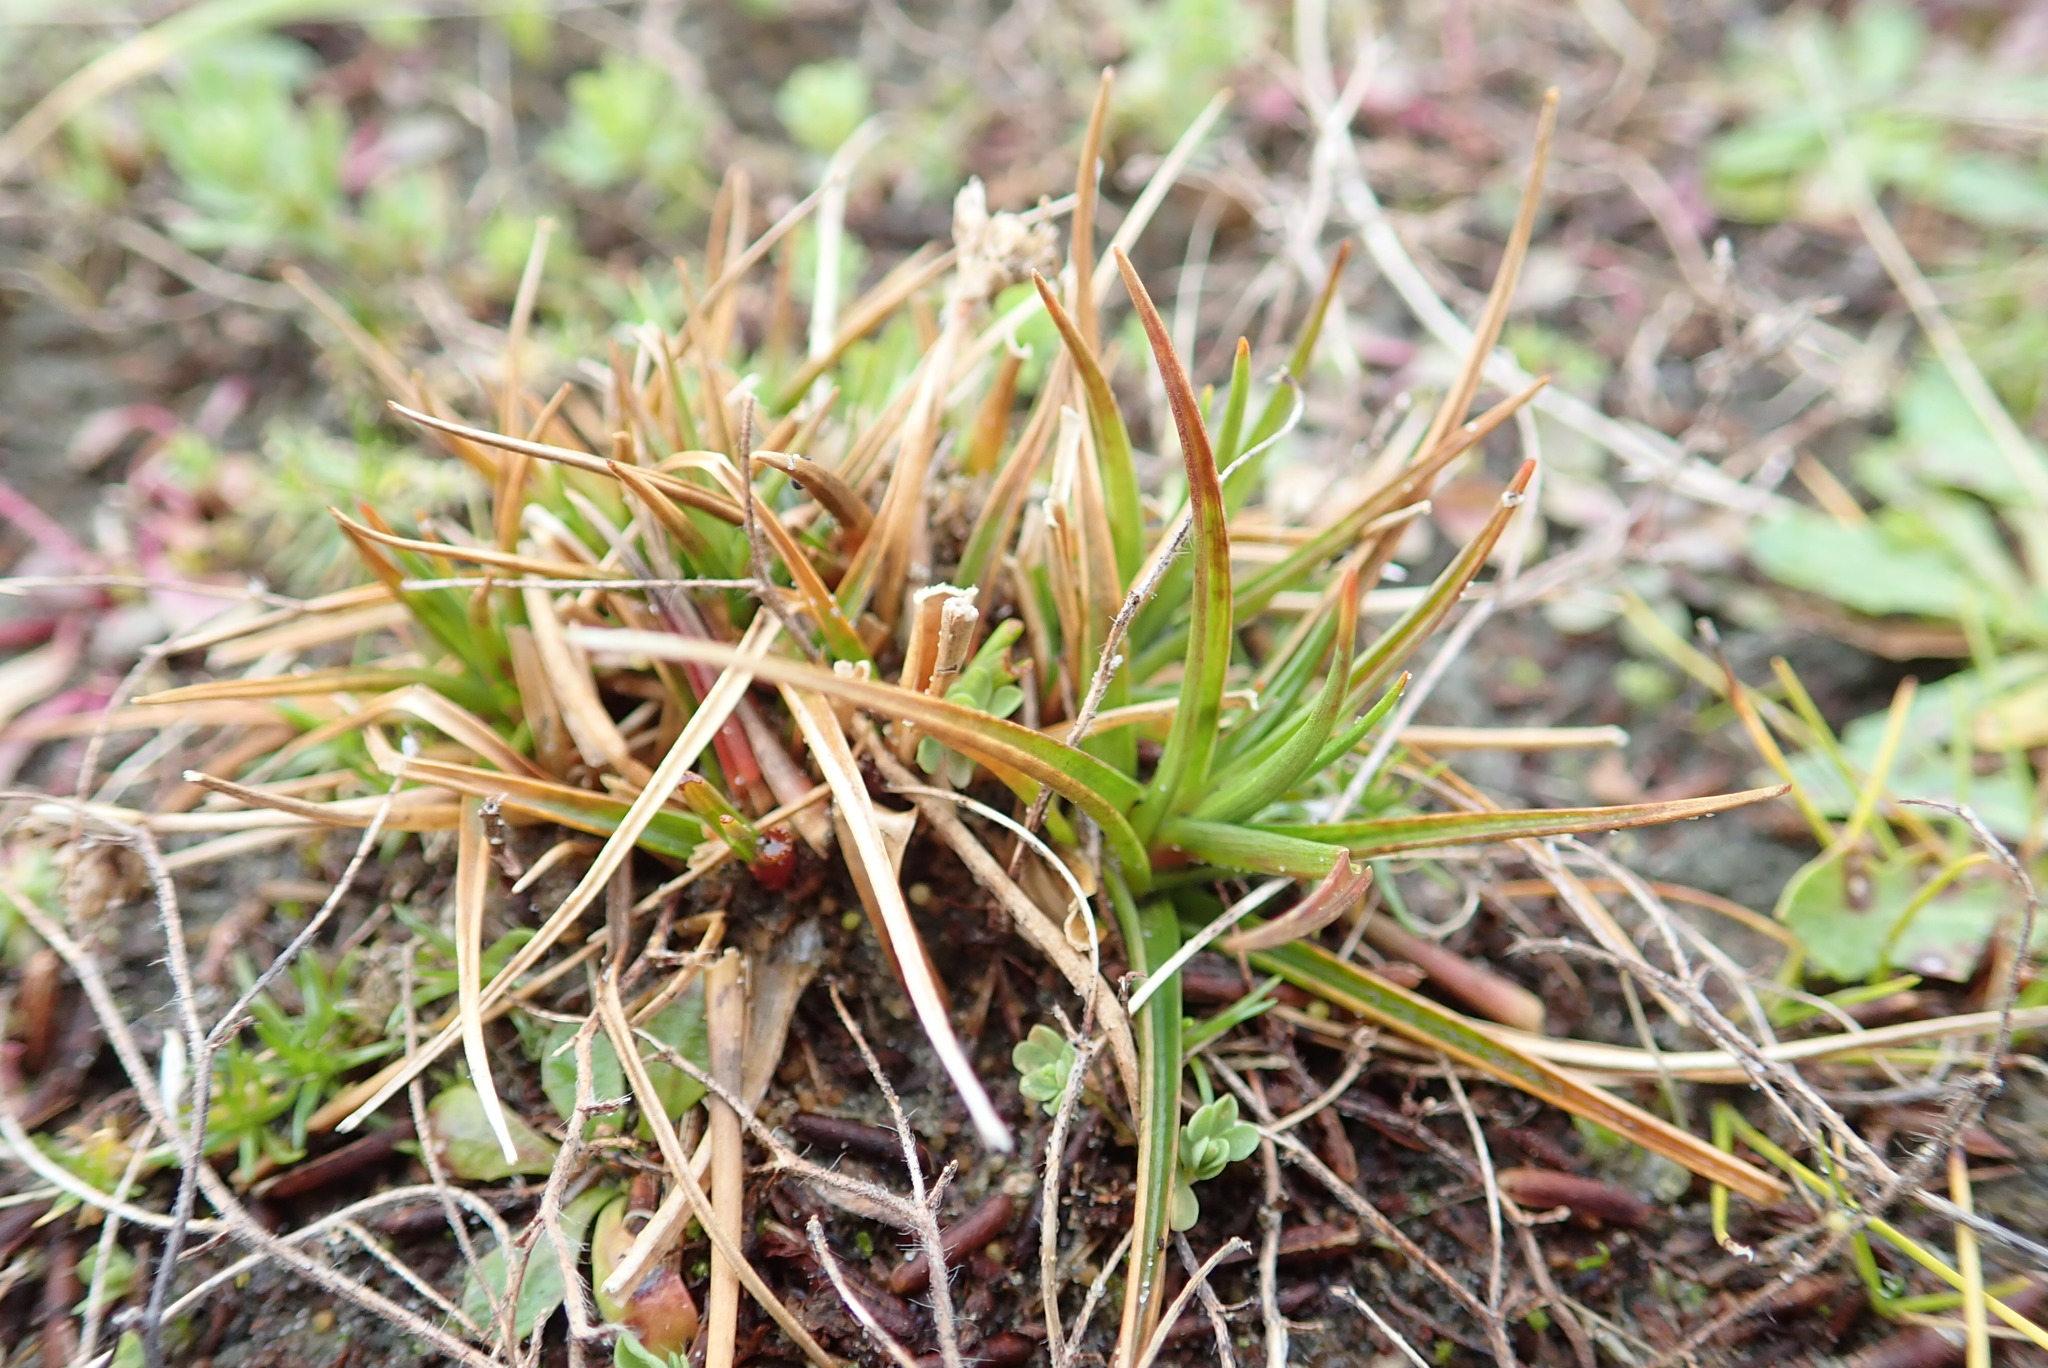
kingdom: Plantae
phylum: Tracheophyta
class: Liliopsida
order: Poales
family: Juncaceae
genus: Juncus
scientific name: Juncus caespiticius
